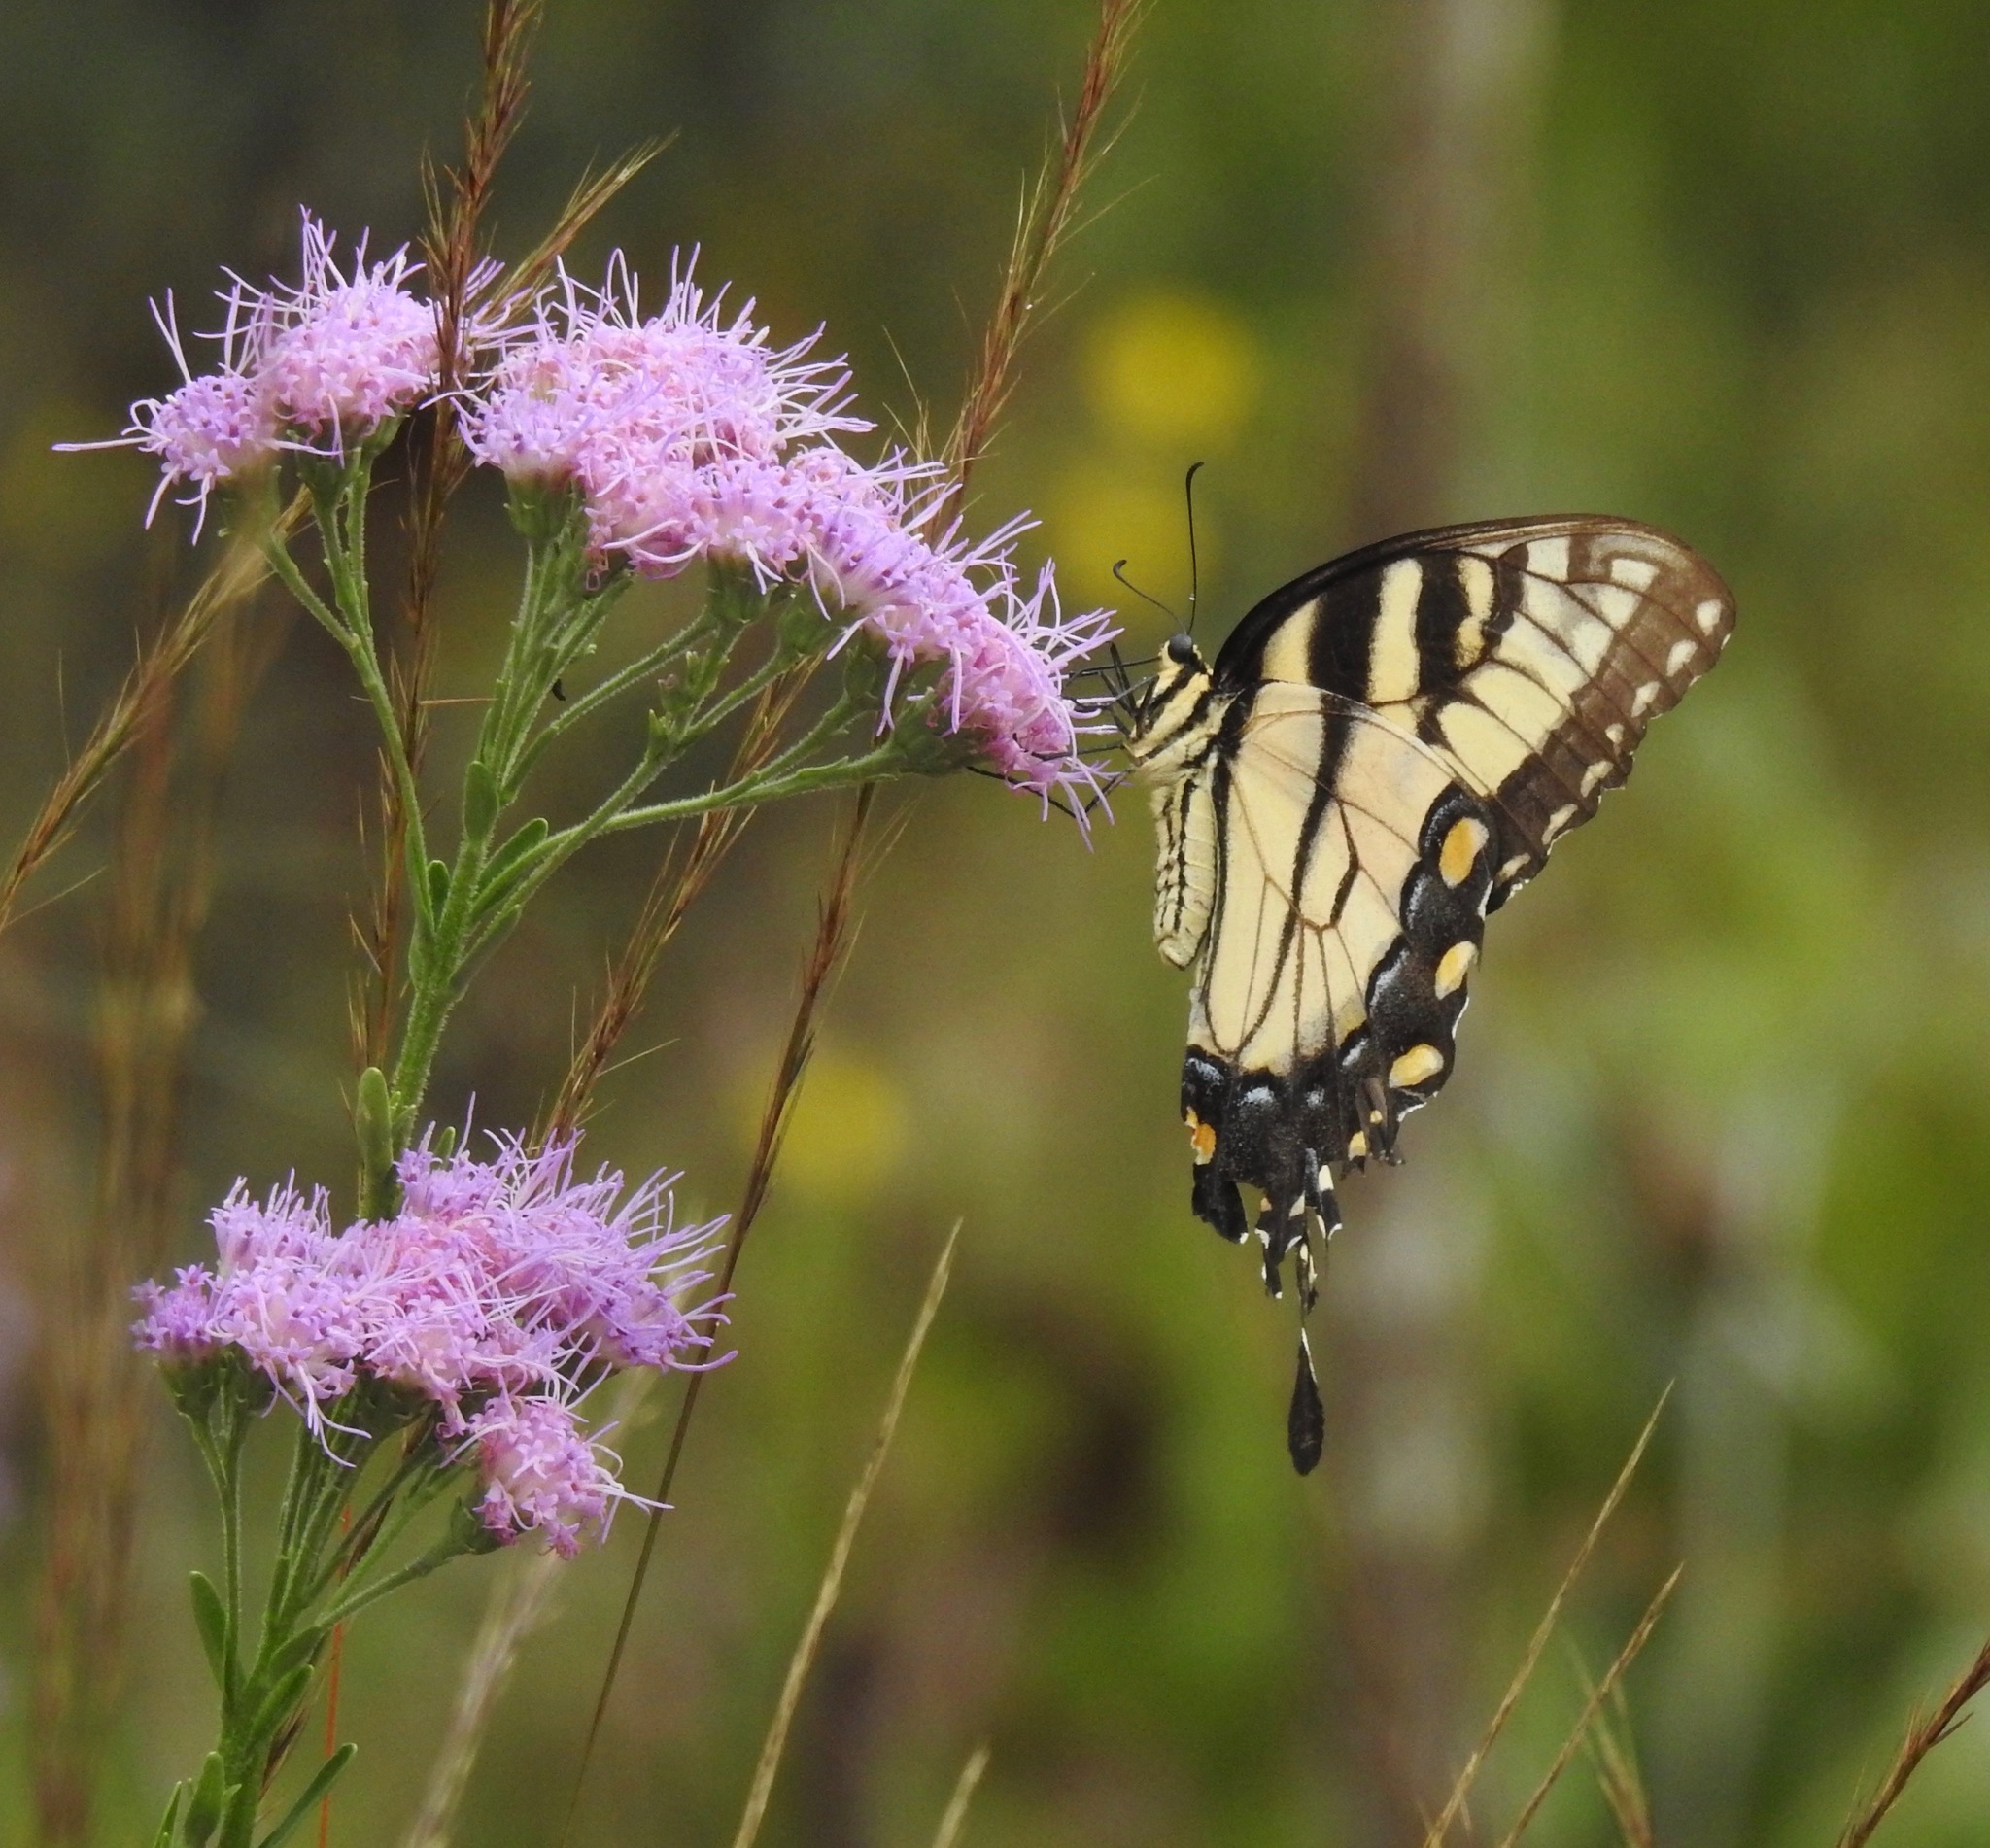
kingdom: Animalia
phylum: Arthropoda
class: Insecta
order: Lepidoptera
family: Papilionidae
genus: Papilio
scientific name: Papilio glaucus
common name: Tiger swallowtail
